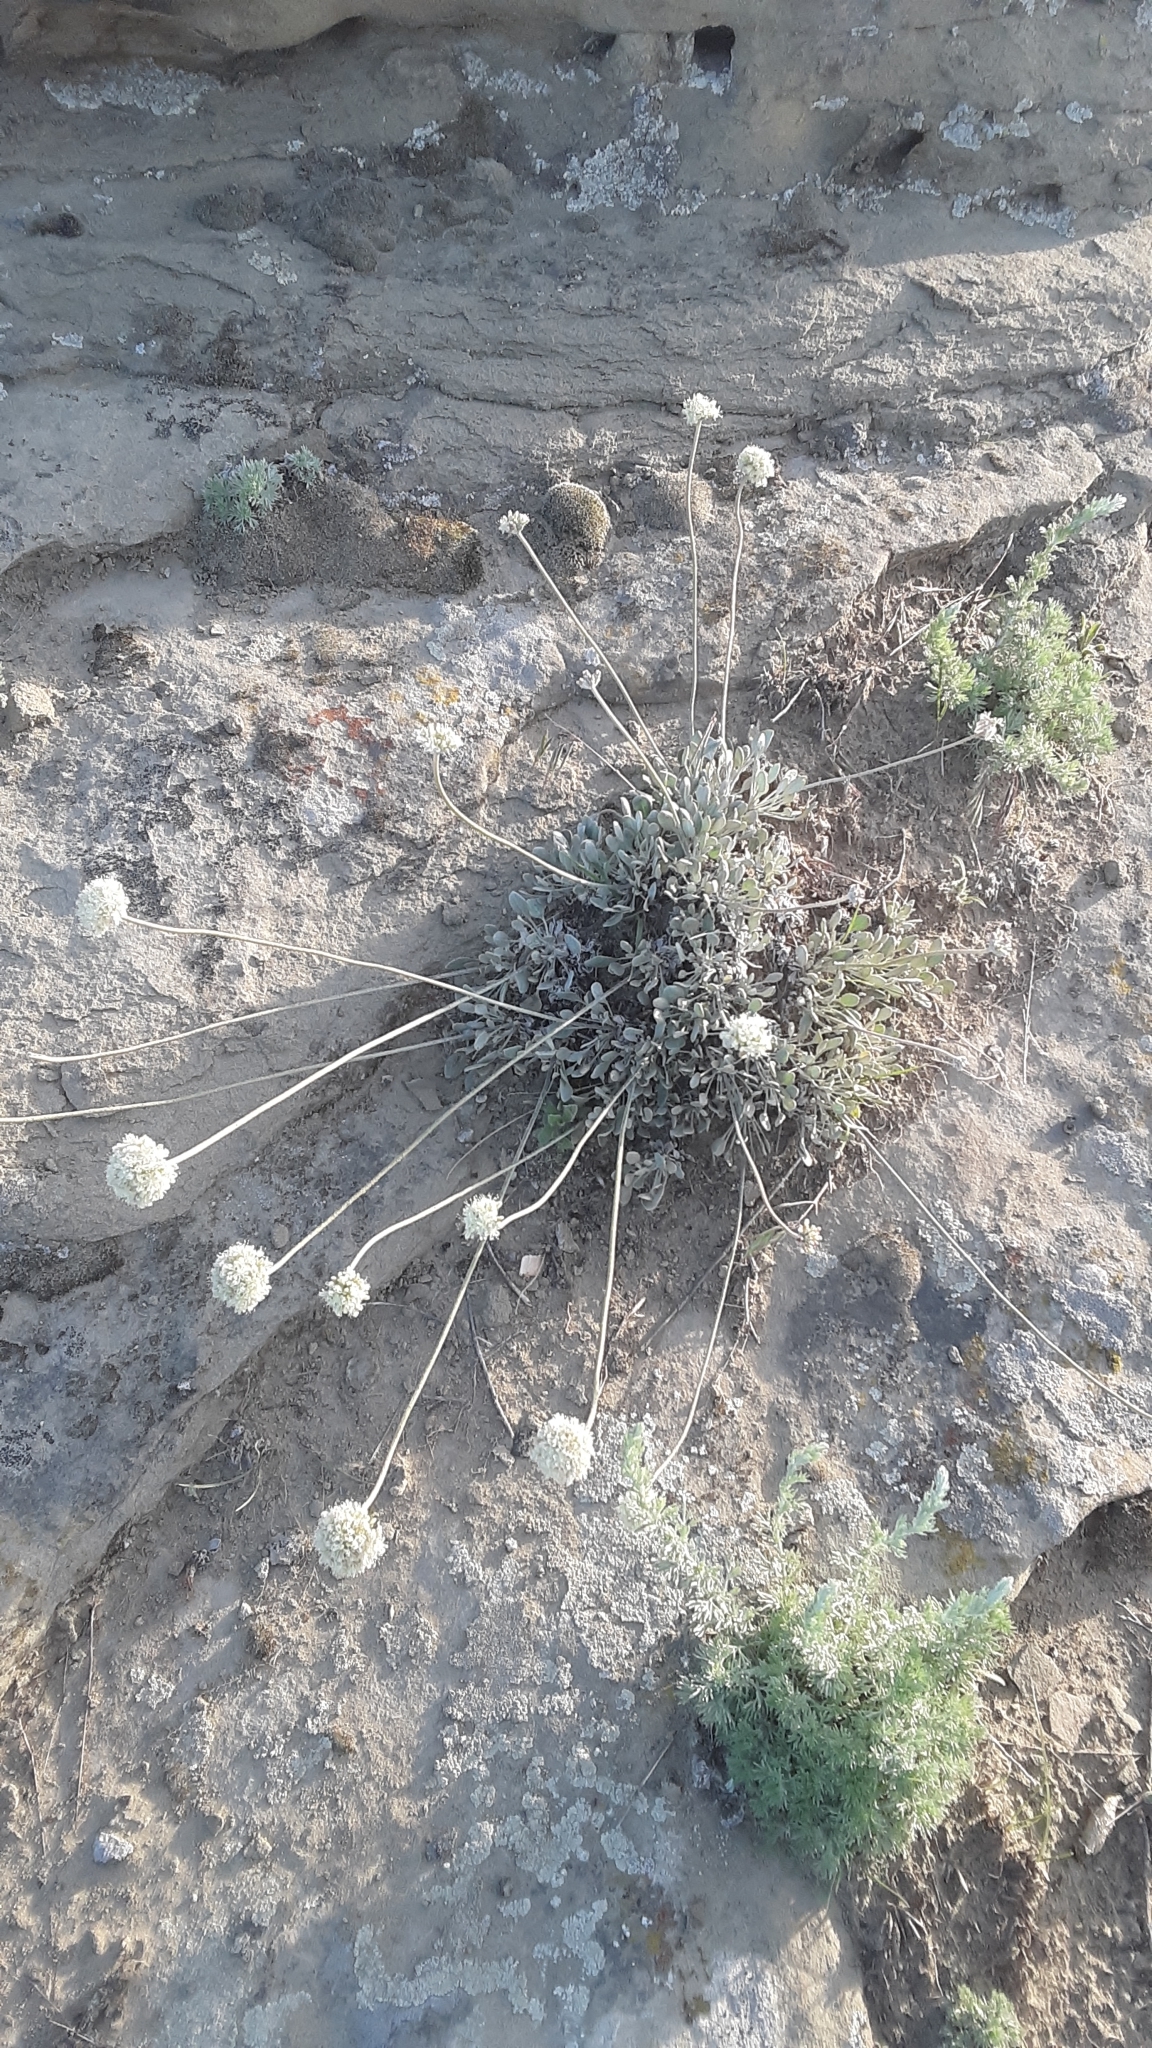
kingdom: Plantae
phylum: Tracheophyta
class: Magnoliopsida
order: Caryophyllales
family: Polygonaceae
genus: Eriogonum
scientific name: Eriogonum ovalifolium
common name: Cushion buckwheat
